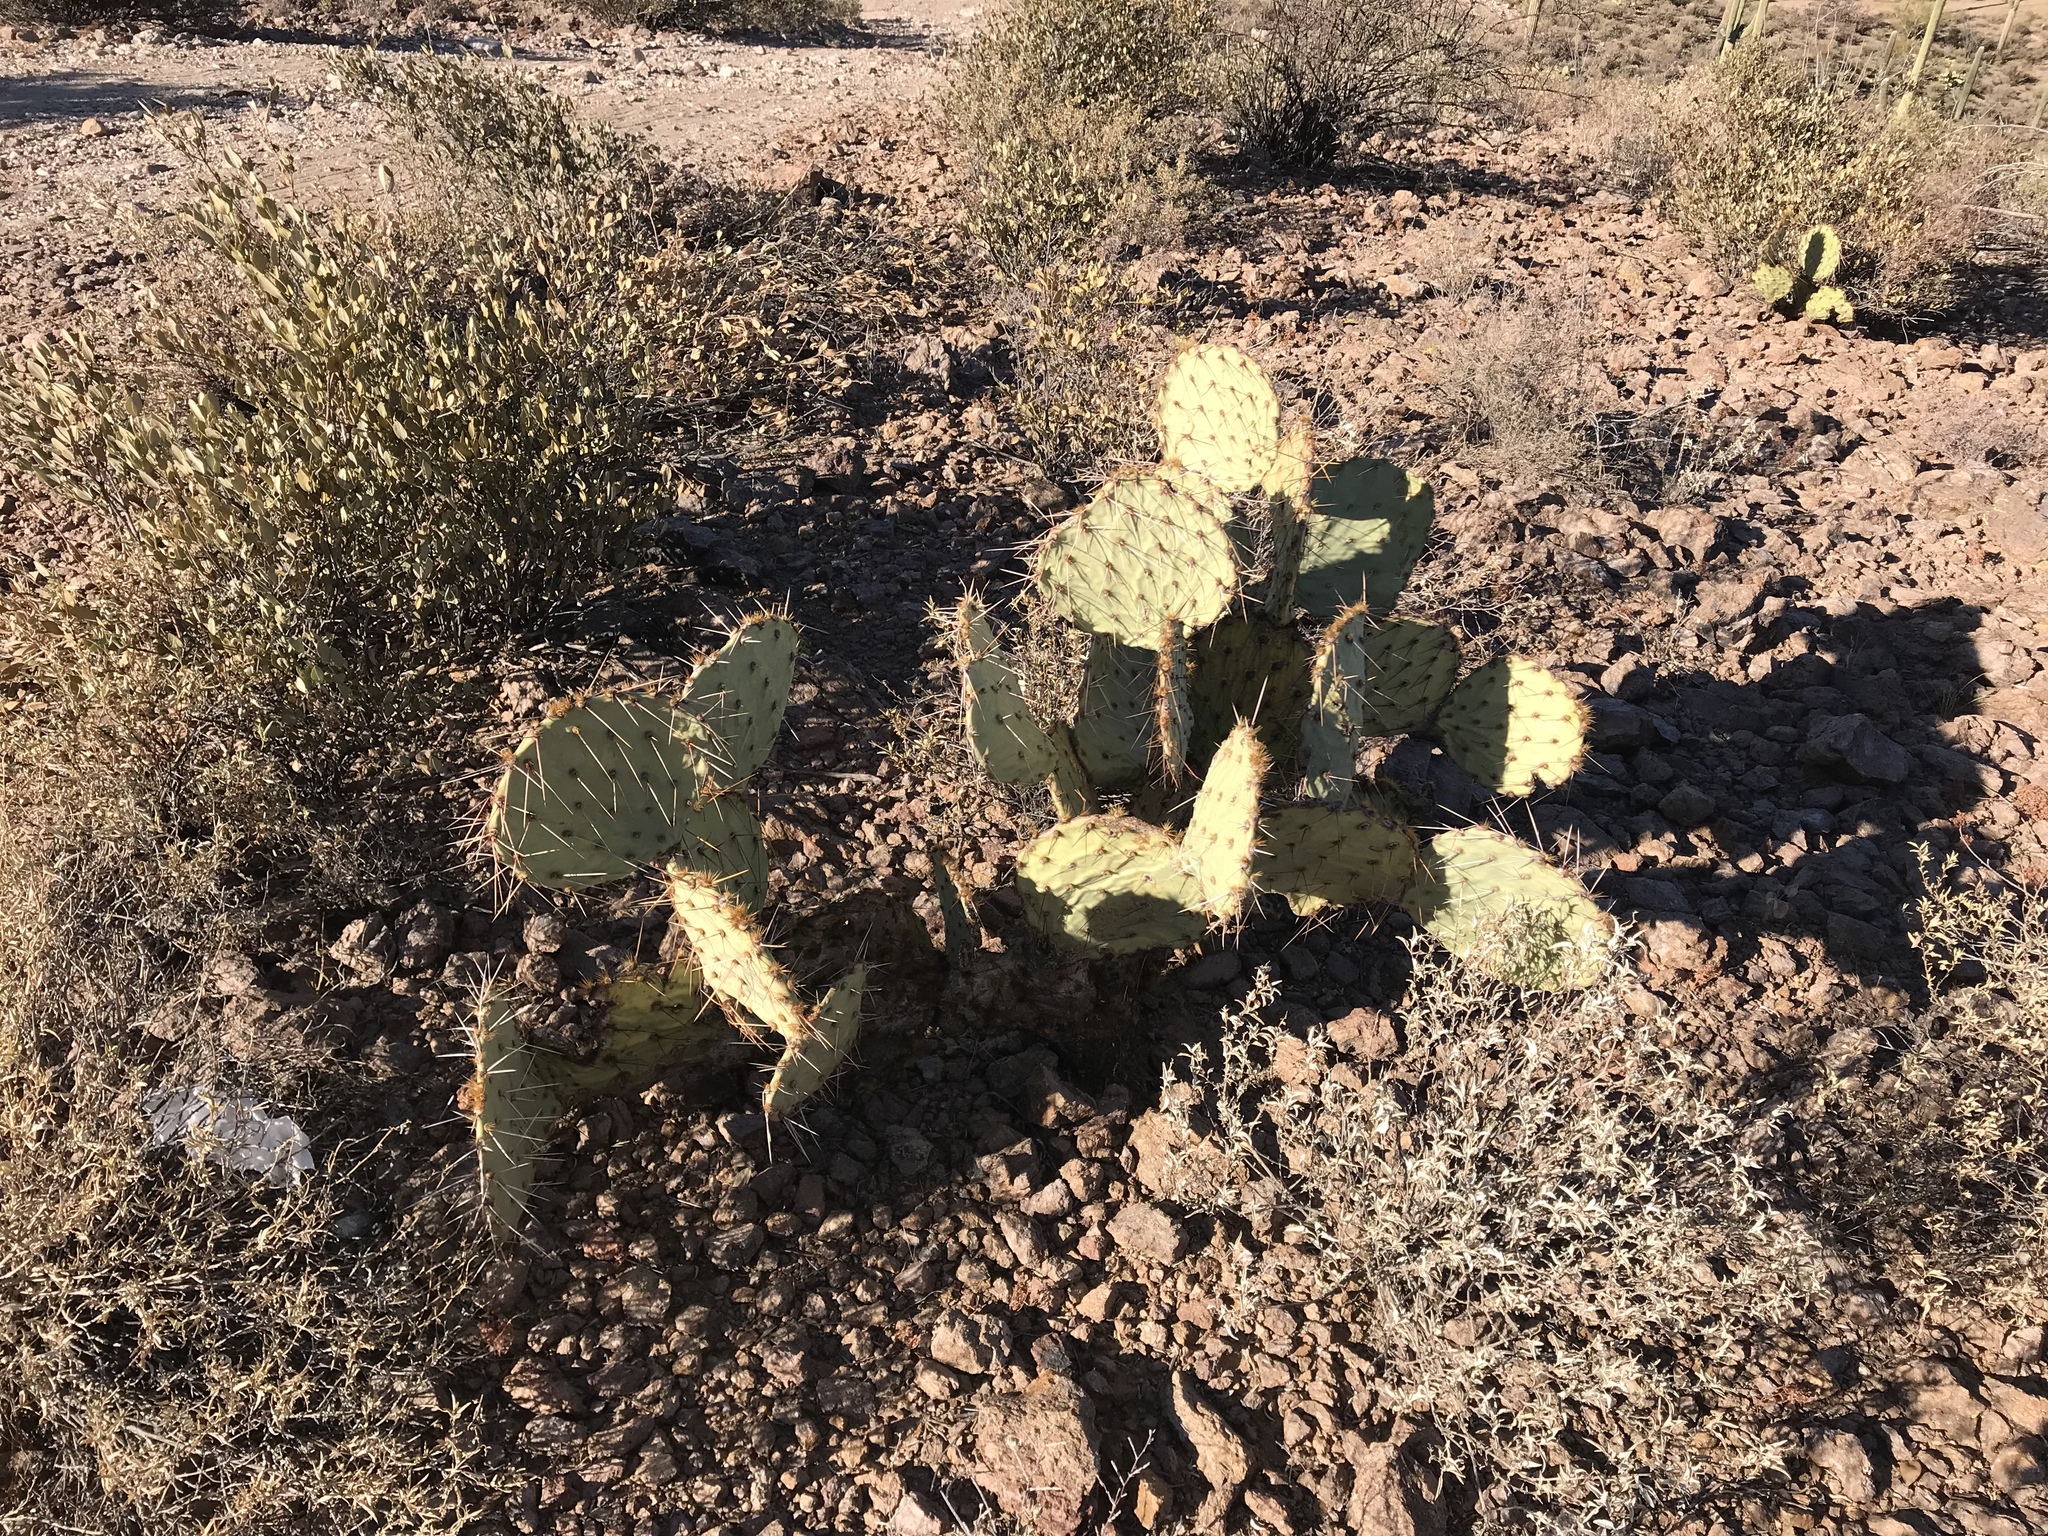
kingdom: Plantae
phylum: Tracheophyta
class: Magnoliopsida
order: Caryophyllales
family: Cactaceae
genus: Opuntia
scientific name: Opuntia phaeacantha
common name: New mexico prickly-pear
